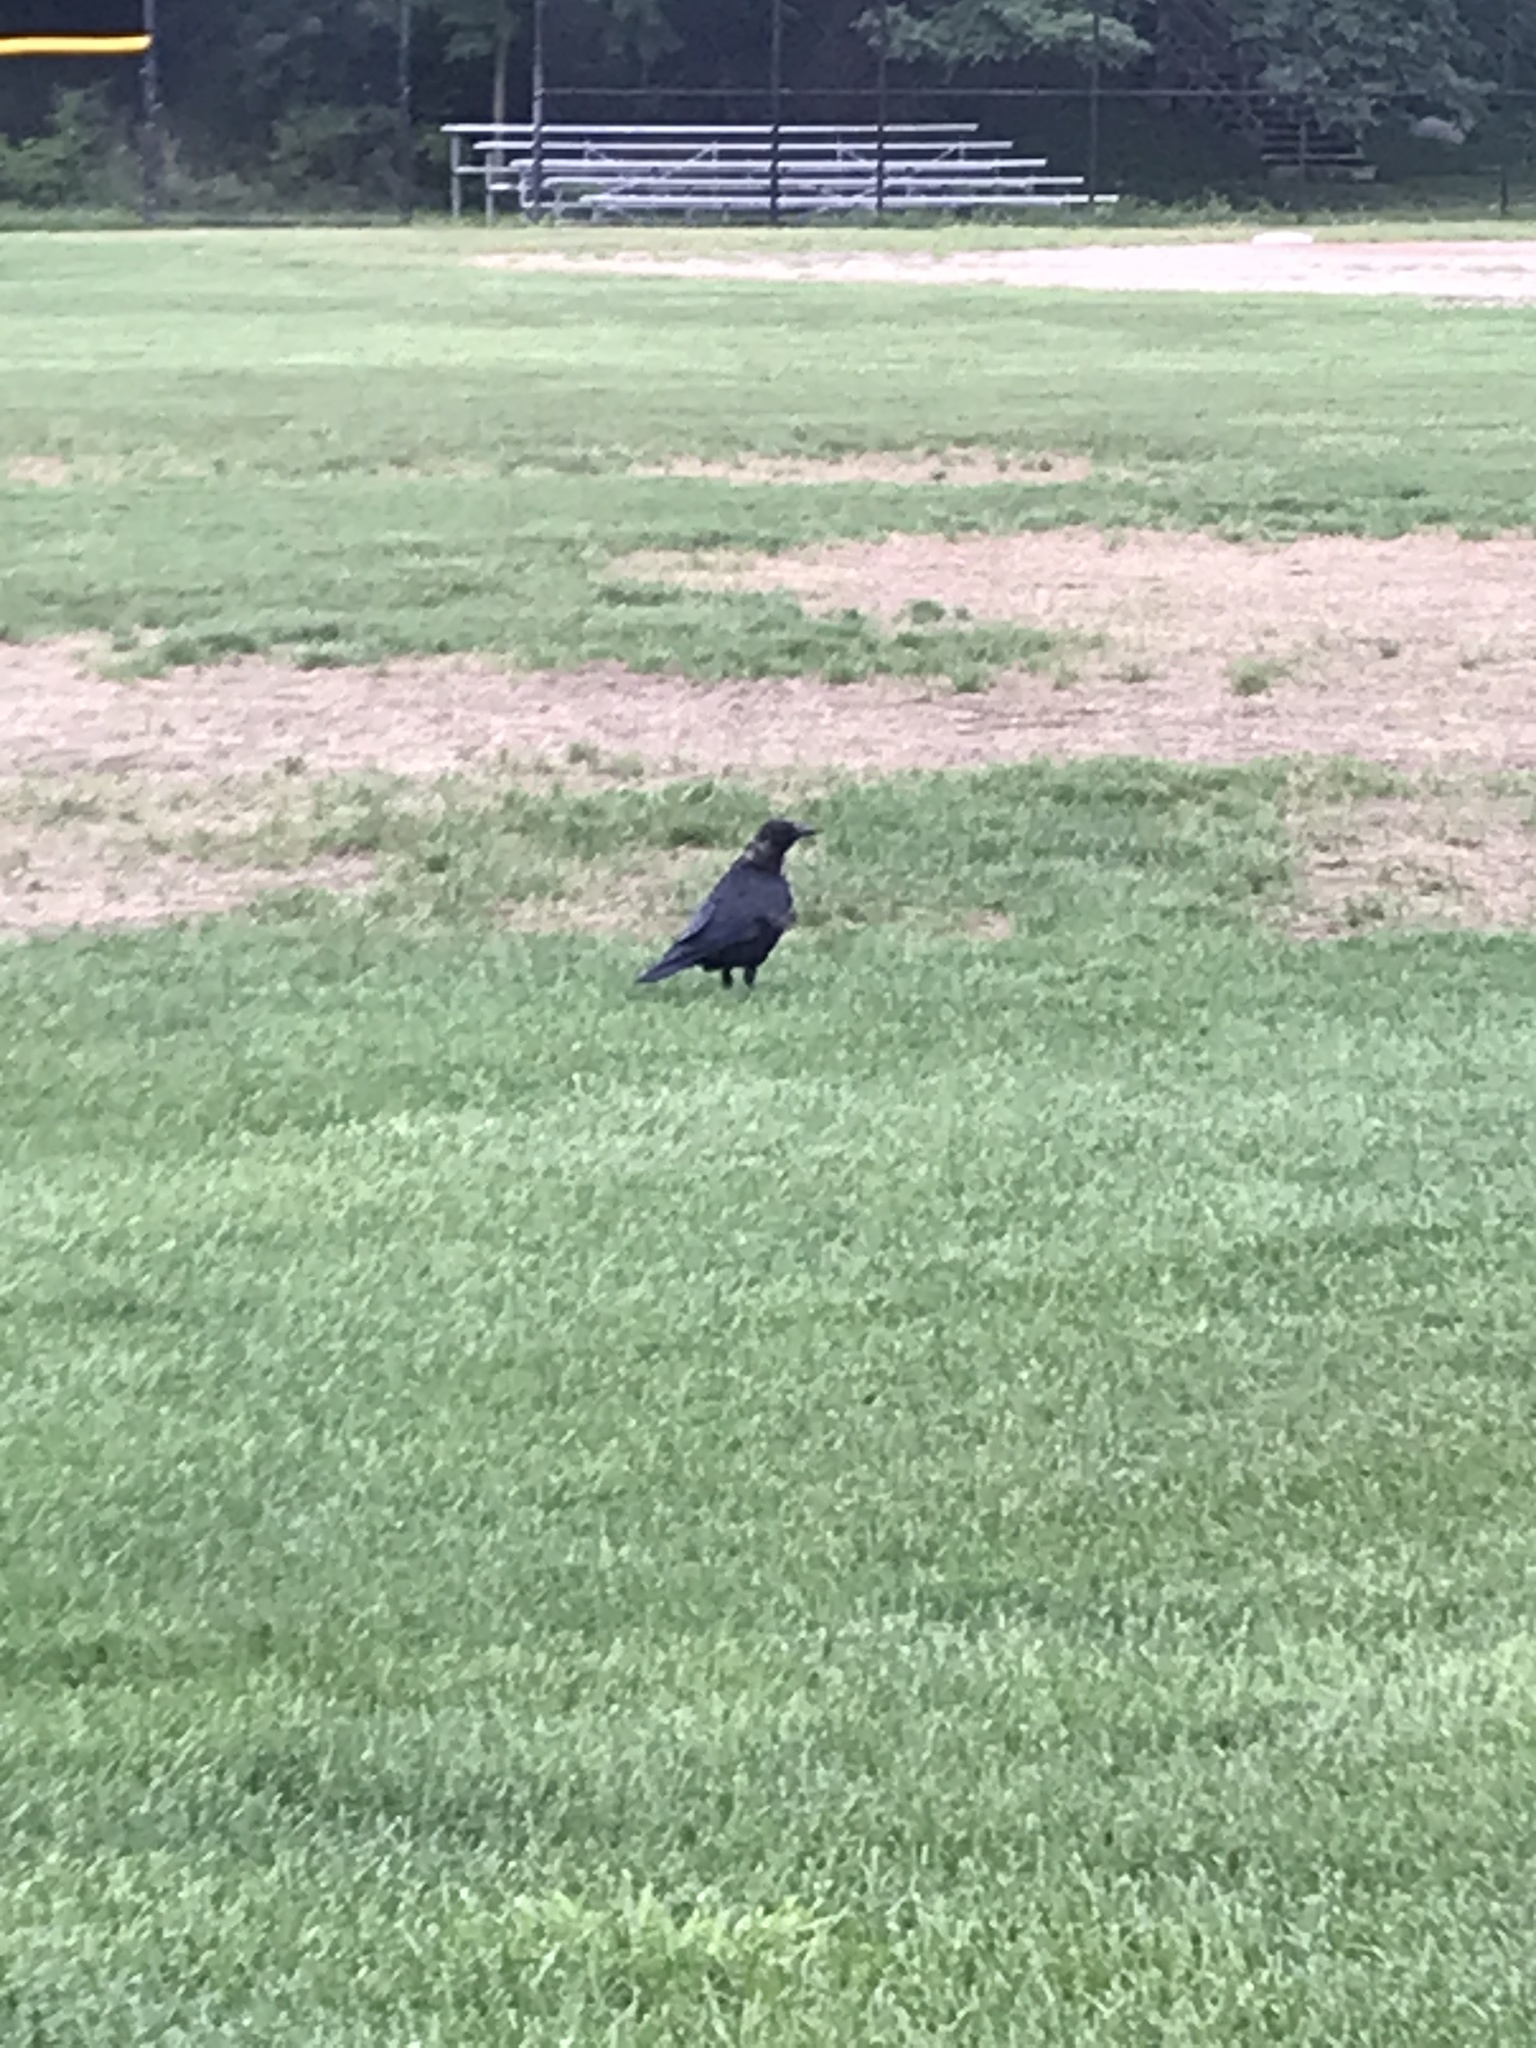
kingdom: Animalia
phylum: Chordata
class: Aves
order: Passeriformes
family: Corvidae
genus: Corvus
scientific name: Corvus brachyrhynchos
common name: American crow
